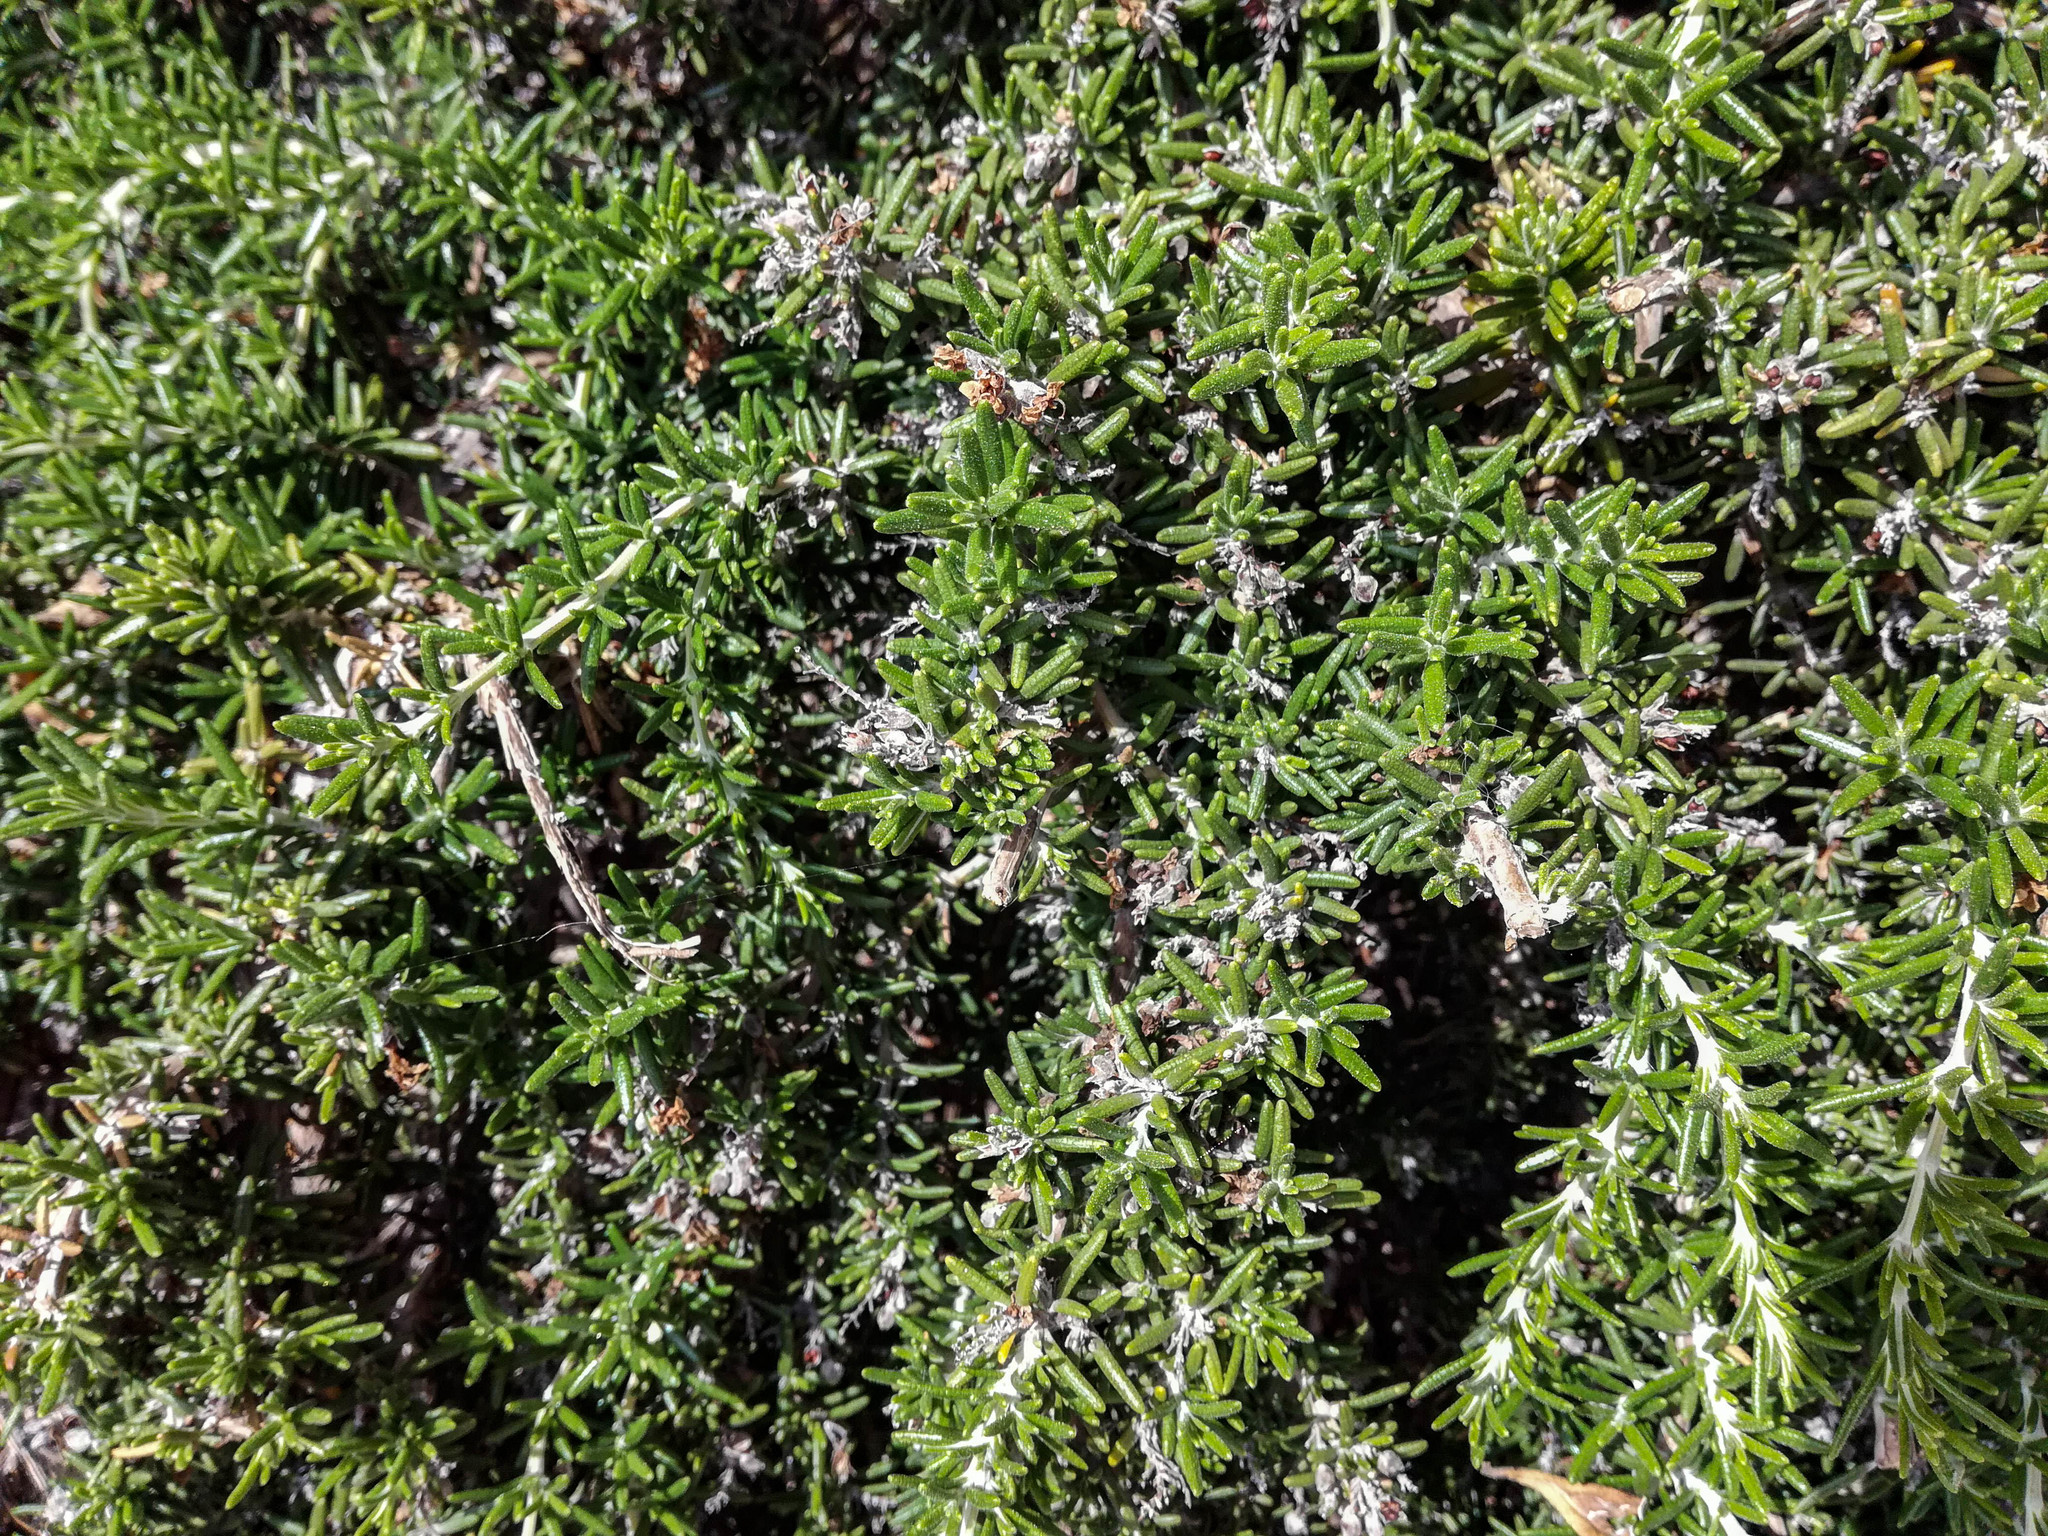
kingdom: Plantae
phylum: Tracheophyta
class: Magnoliopsida
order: Lamiales
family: Lamiaceae
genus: Salvia
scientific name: Salvia rosmarinus
